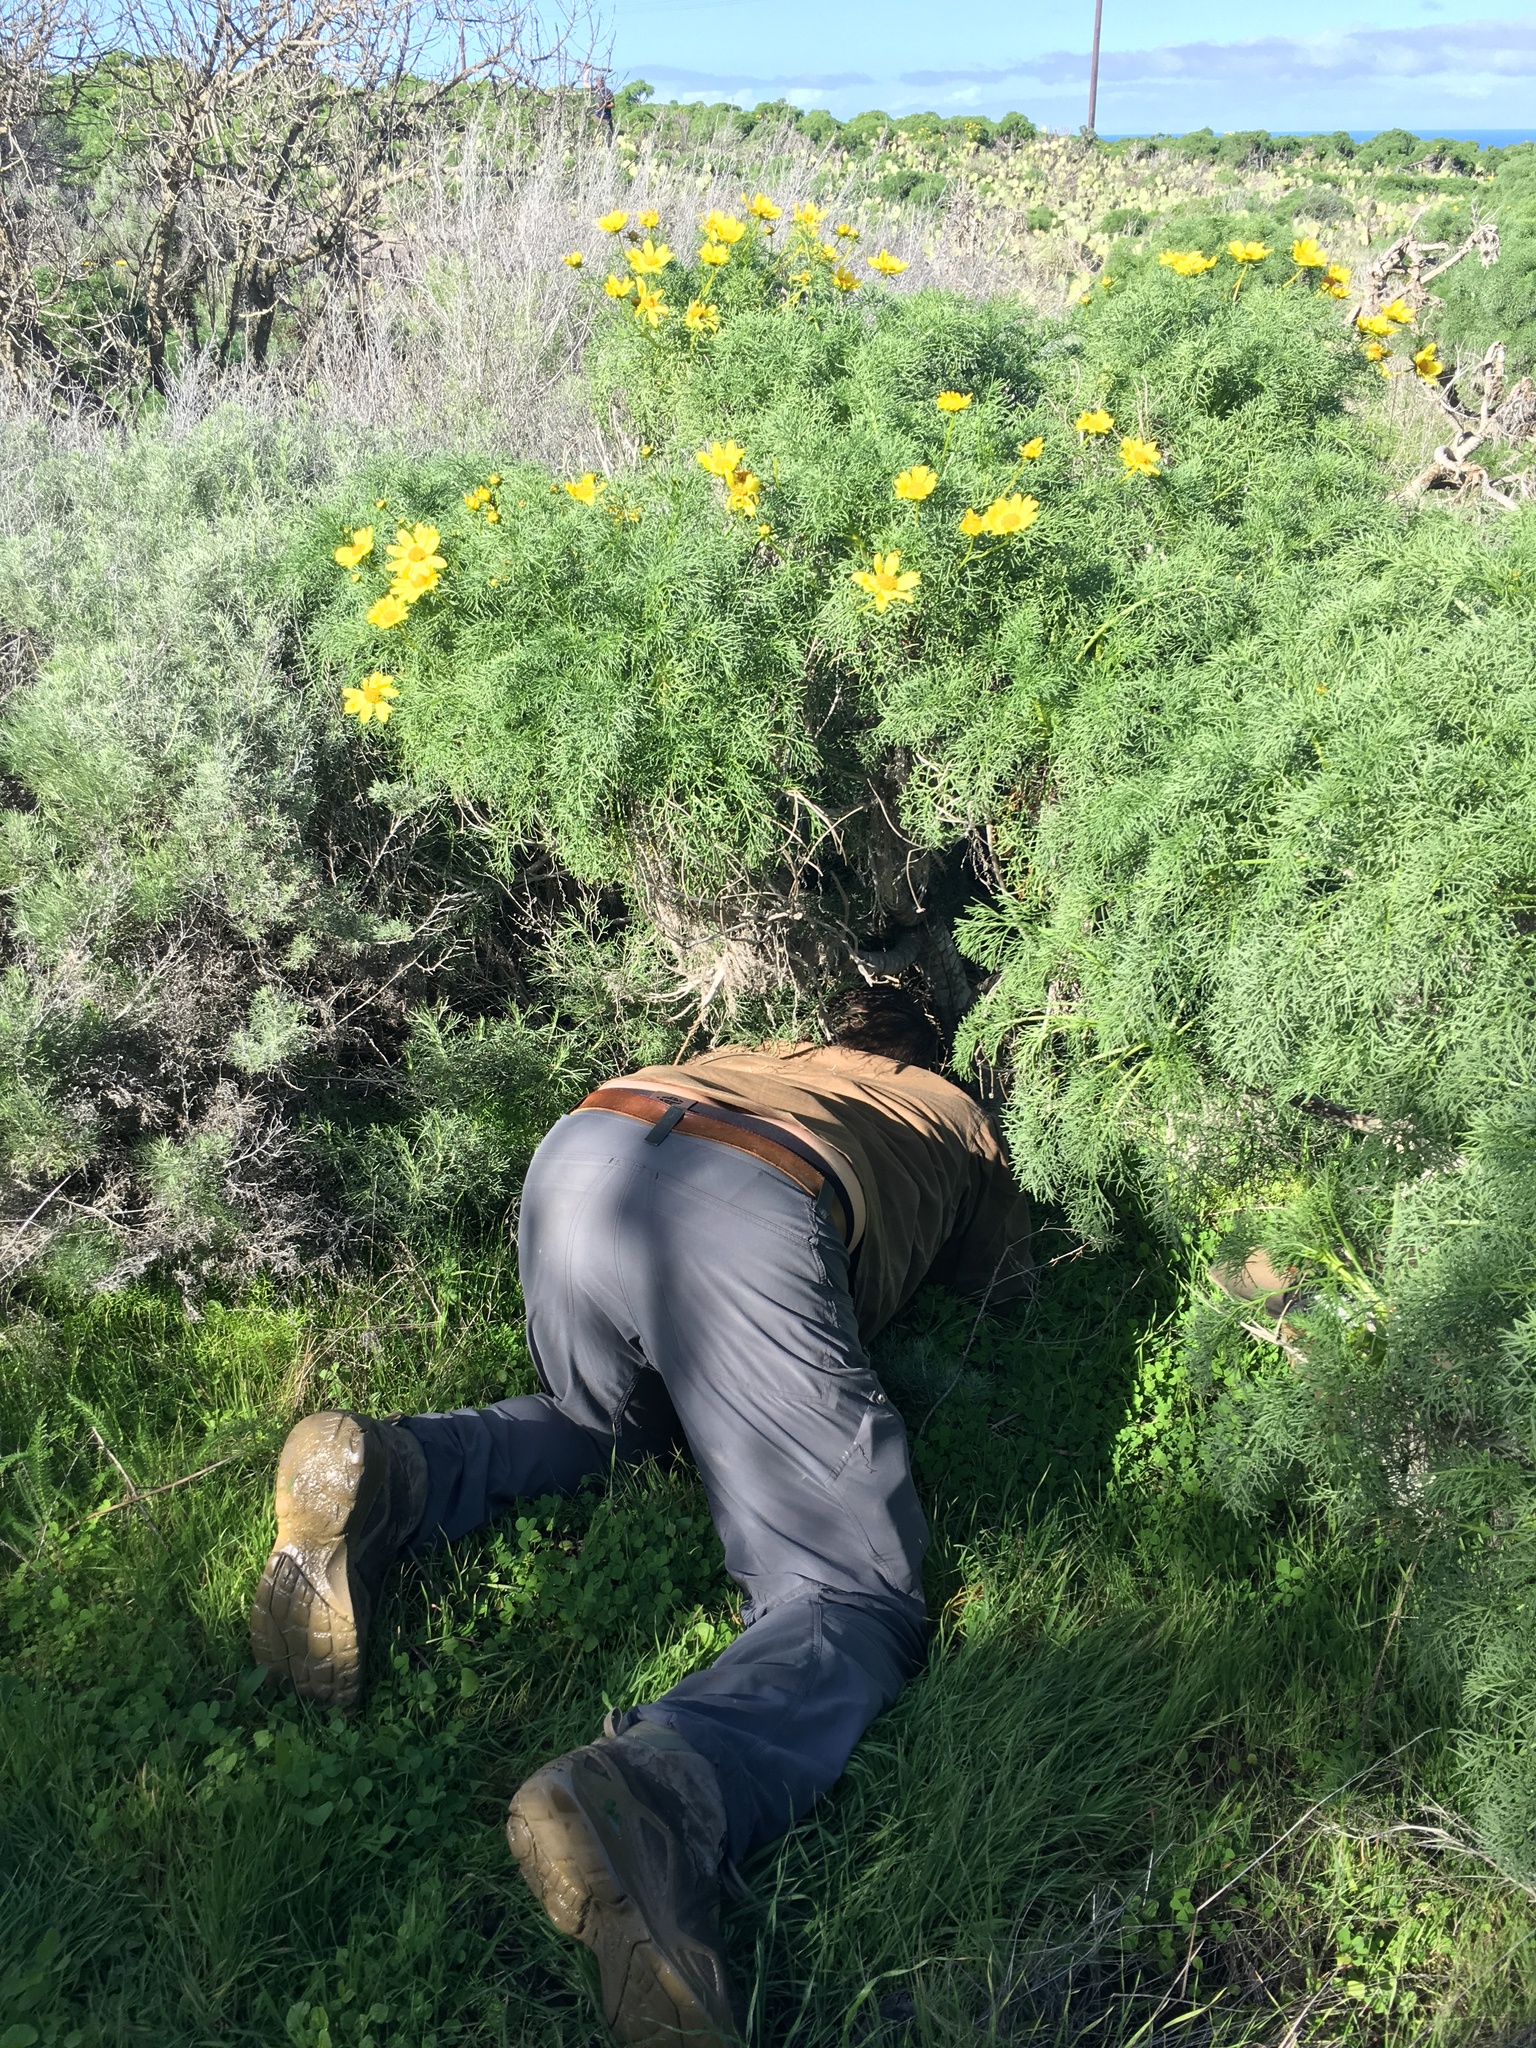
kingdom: Plantae
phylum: Tracheophyta
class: Magnoliopsida
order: Asterales
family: Asteraceae
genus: Coreopsis
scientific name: Coreopsis gigantea
